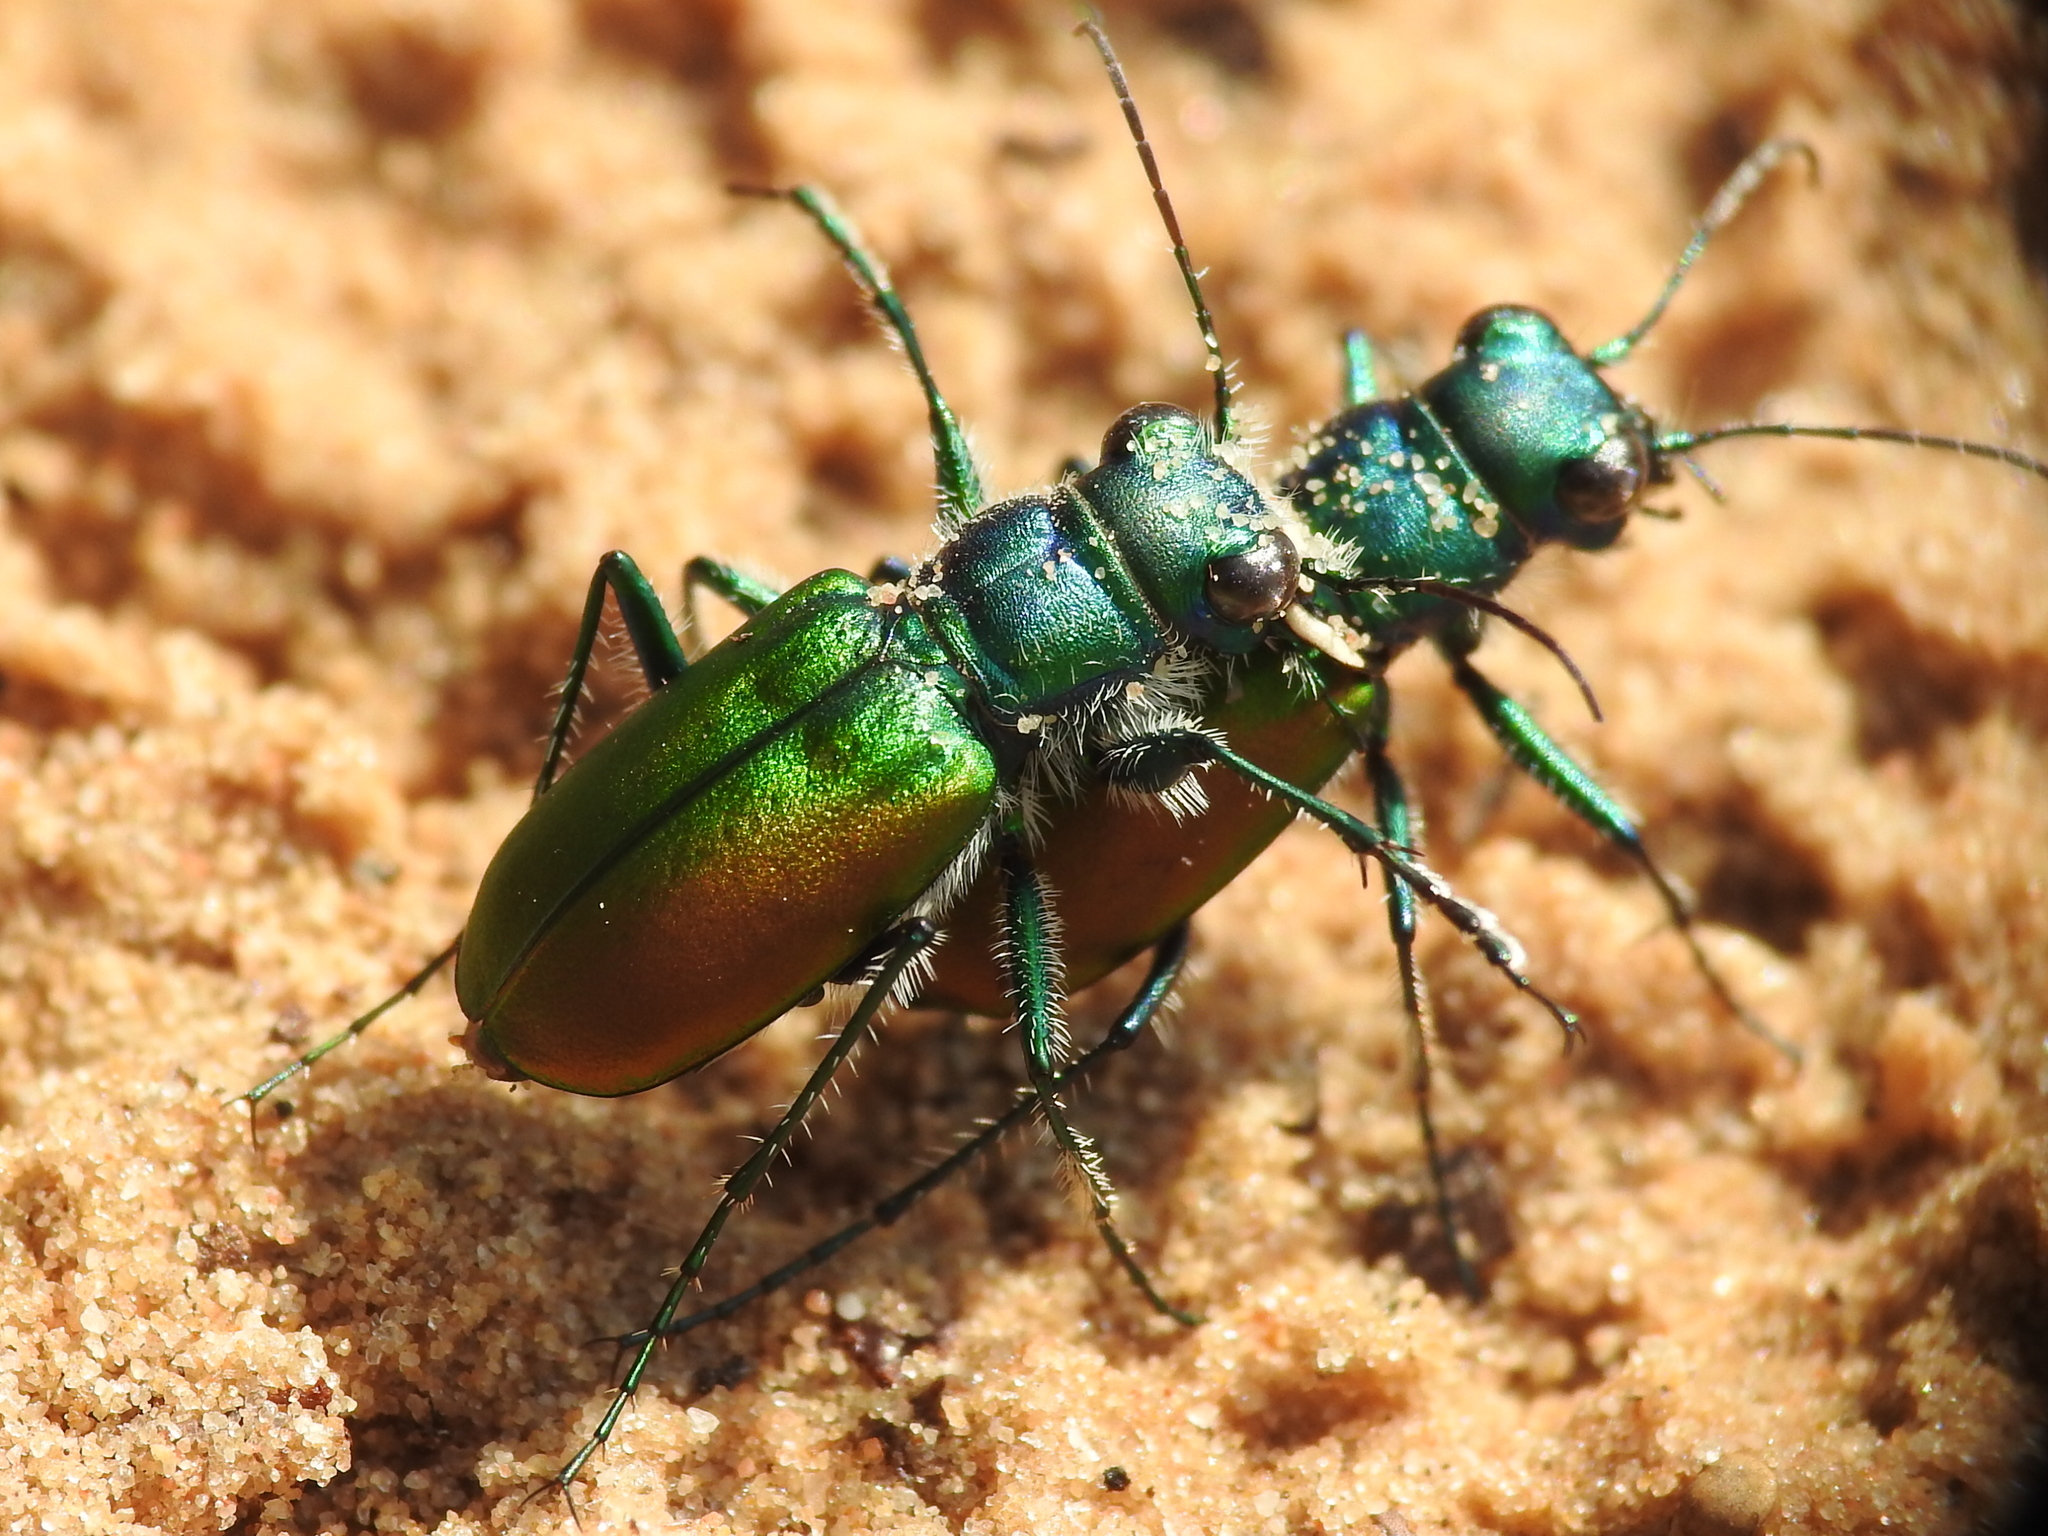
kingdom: Animalia
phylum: Arthropoda
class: Insecta
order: Coleoptera
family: Carabidae
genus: Cicindela
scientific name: Cicindela scutellaris
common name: Festive tiger beetle
